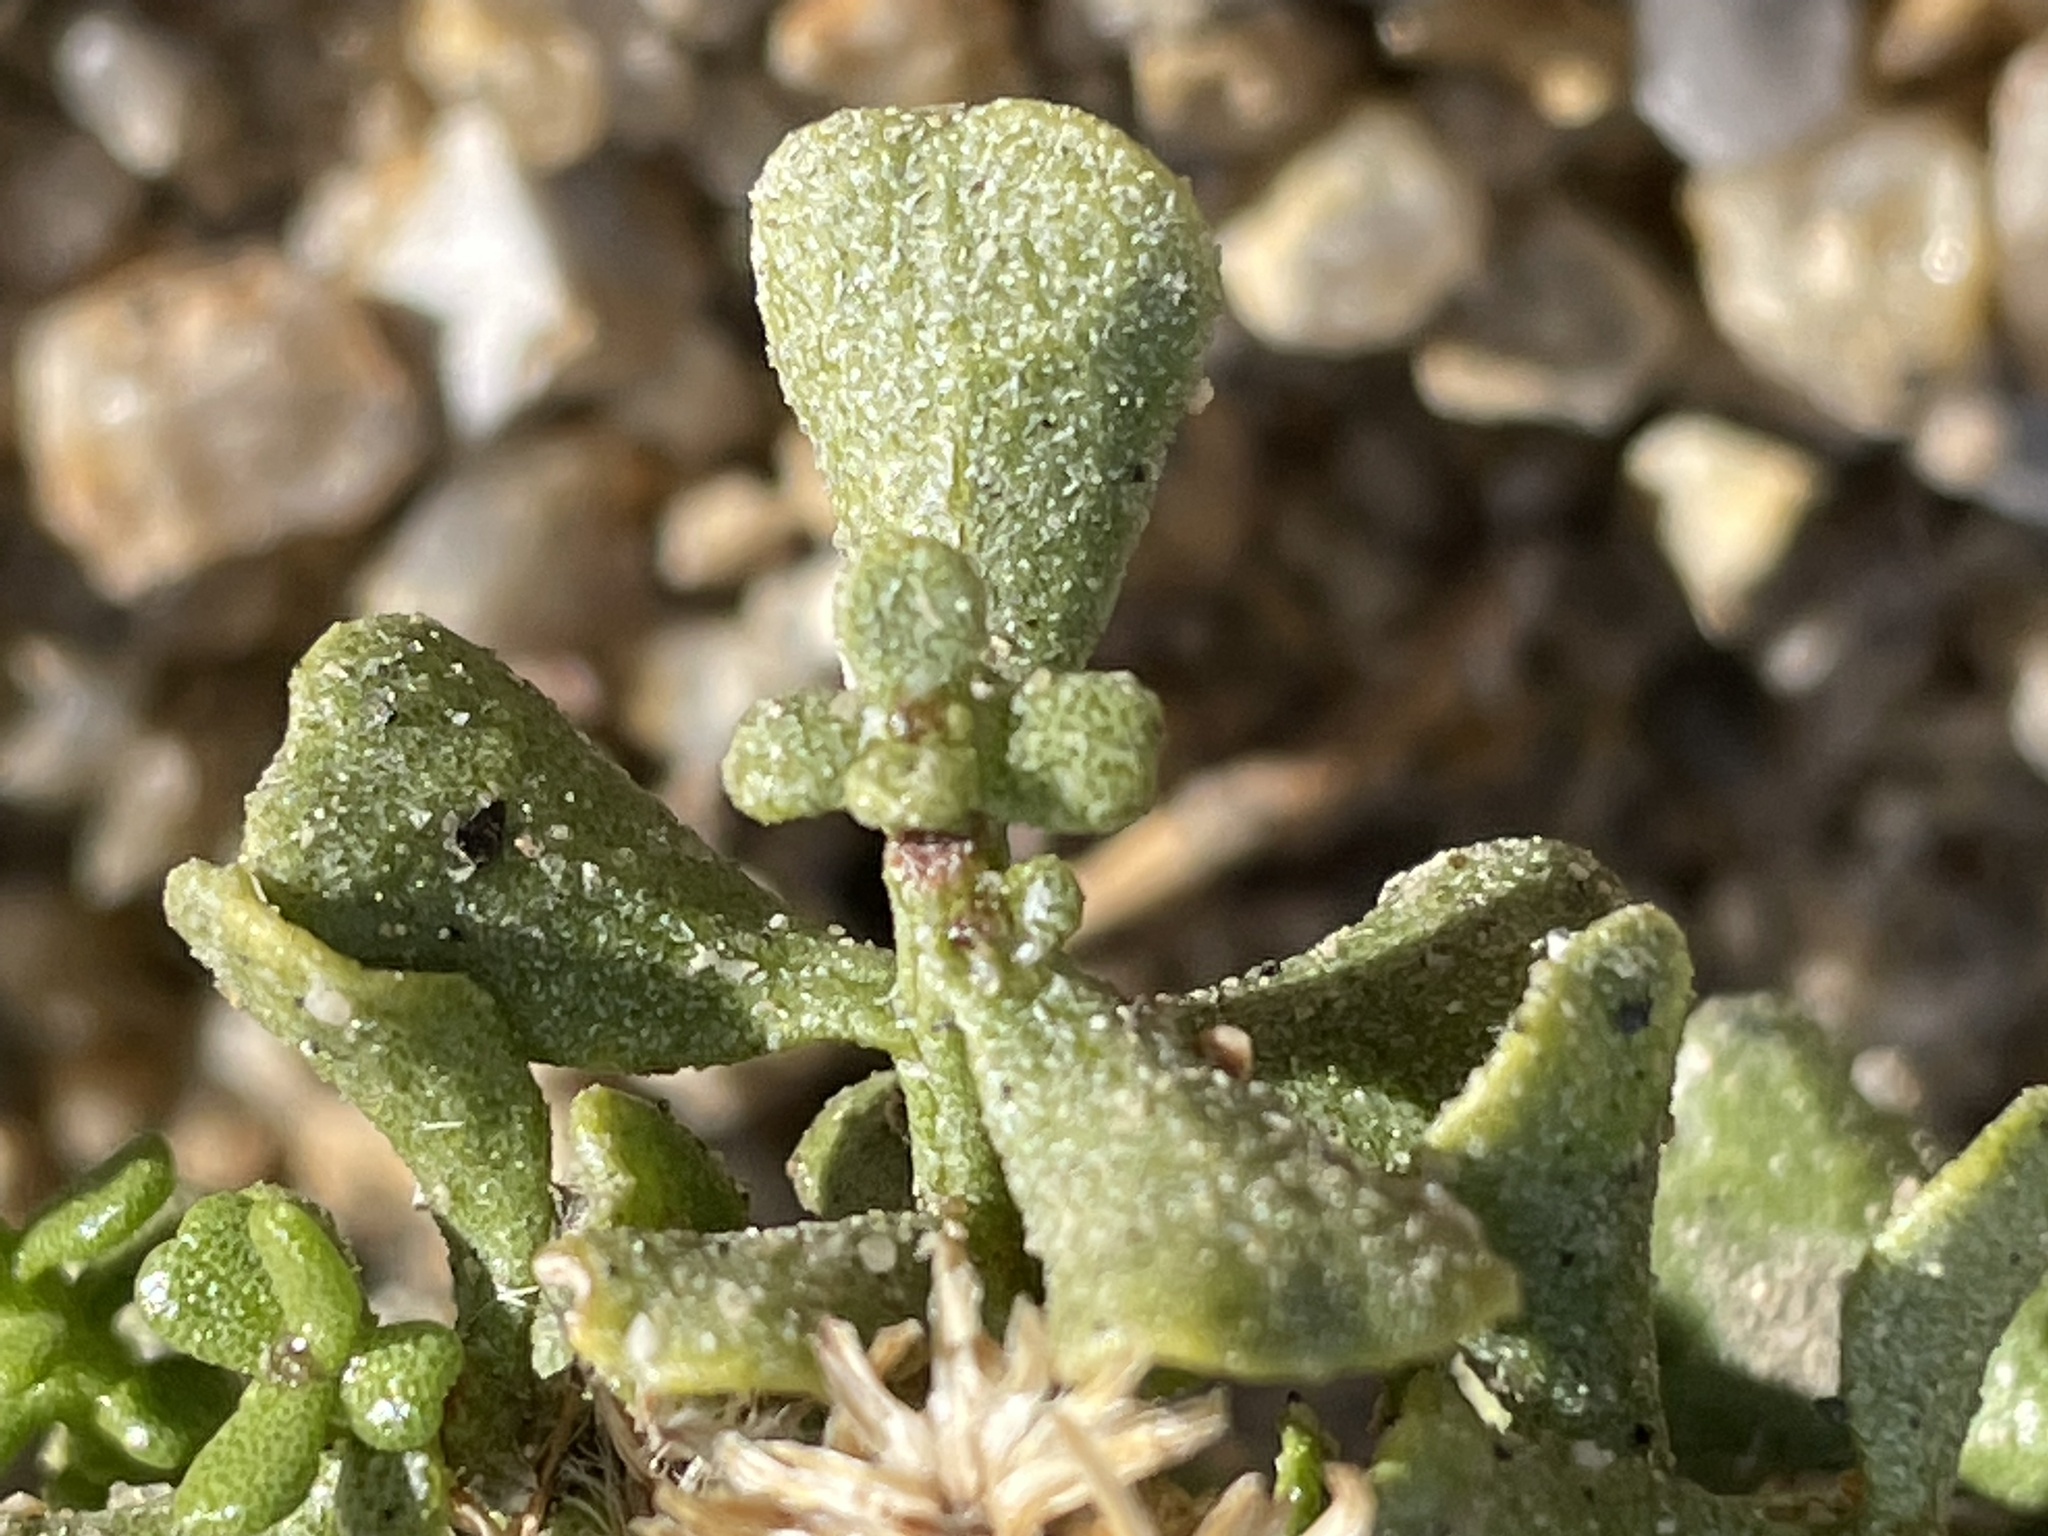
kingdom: Plantae
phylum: Tracheophyta
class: Magnoliopsida
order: Asterales
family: Asteraceae
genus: Ericameria
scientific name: Ericameria cuneata
